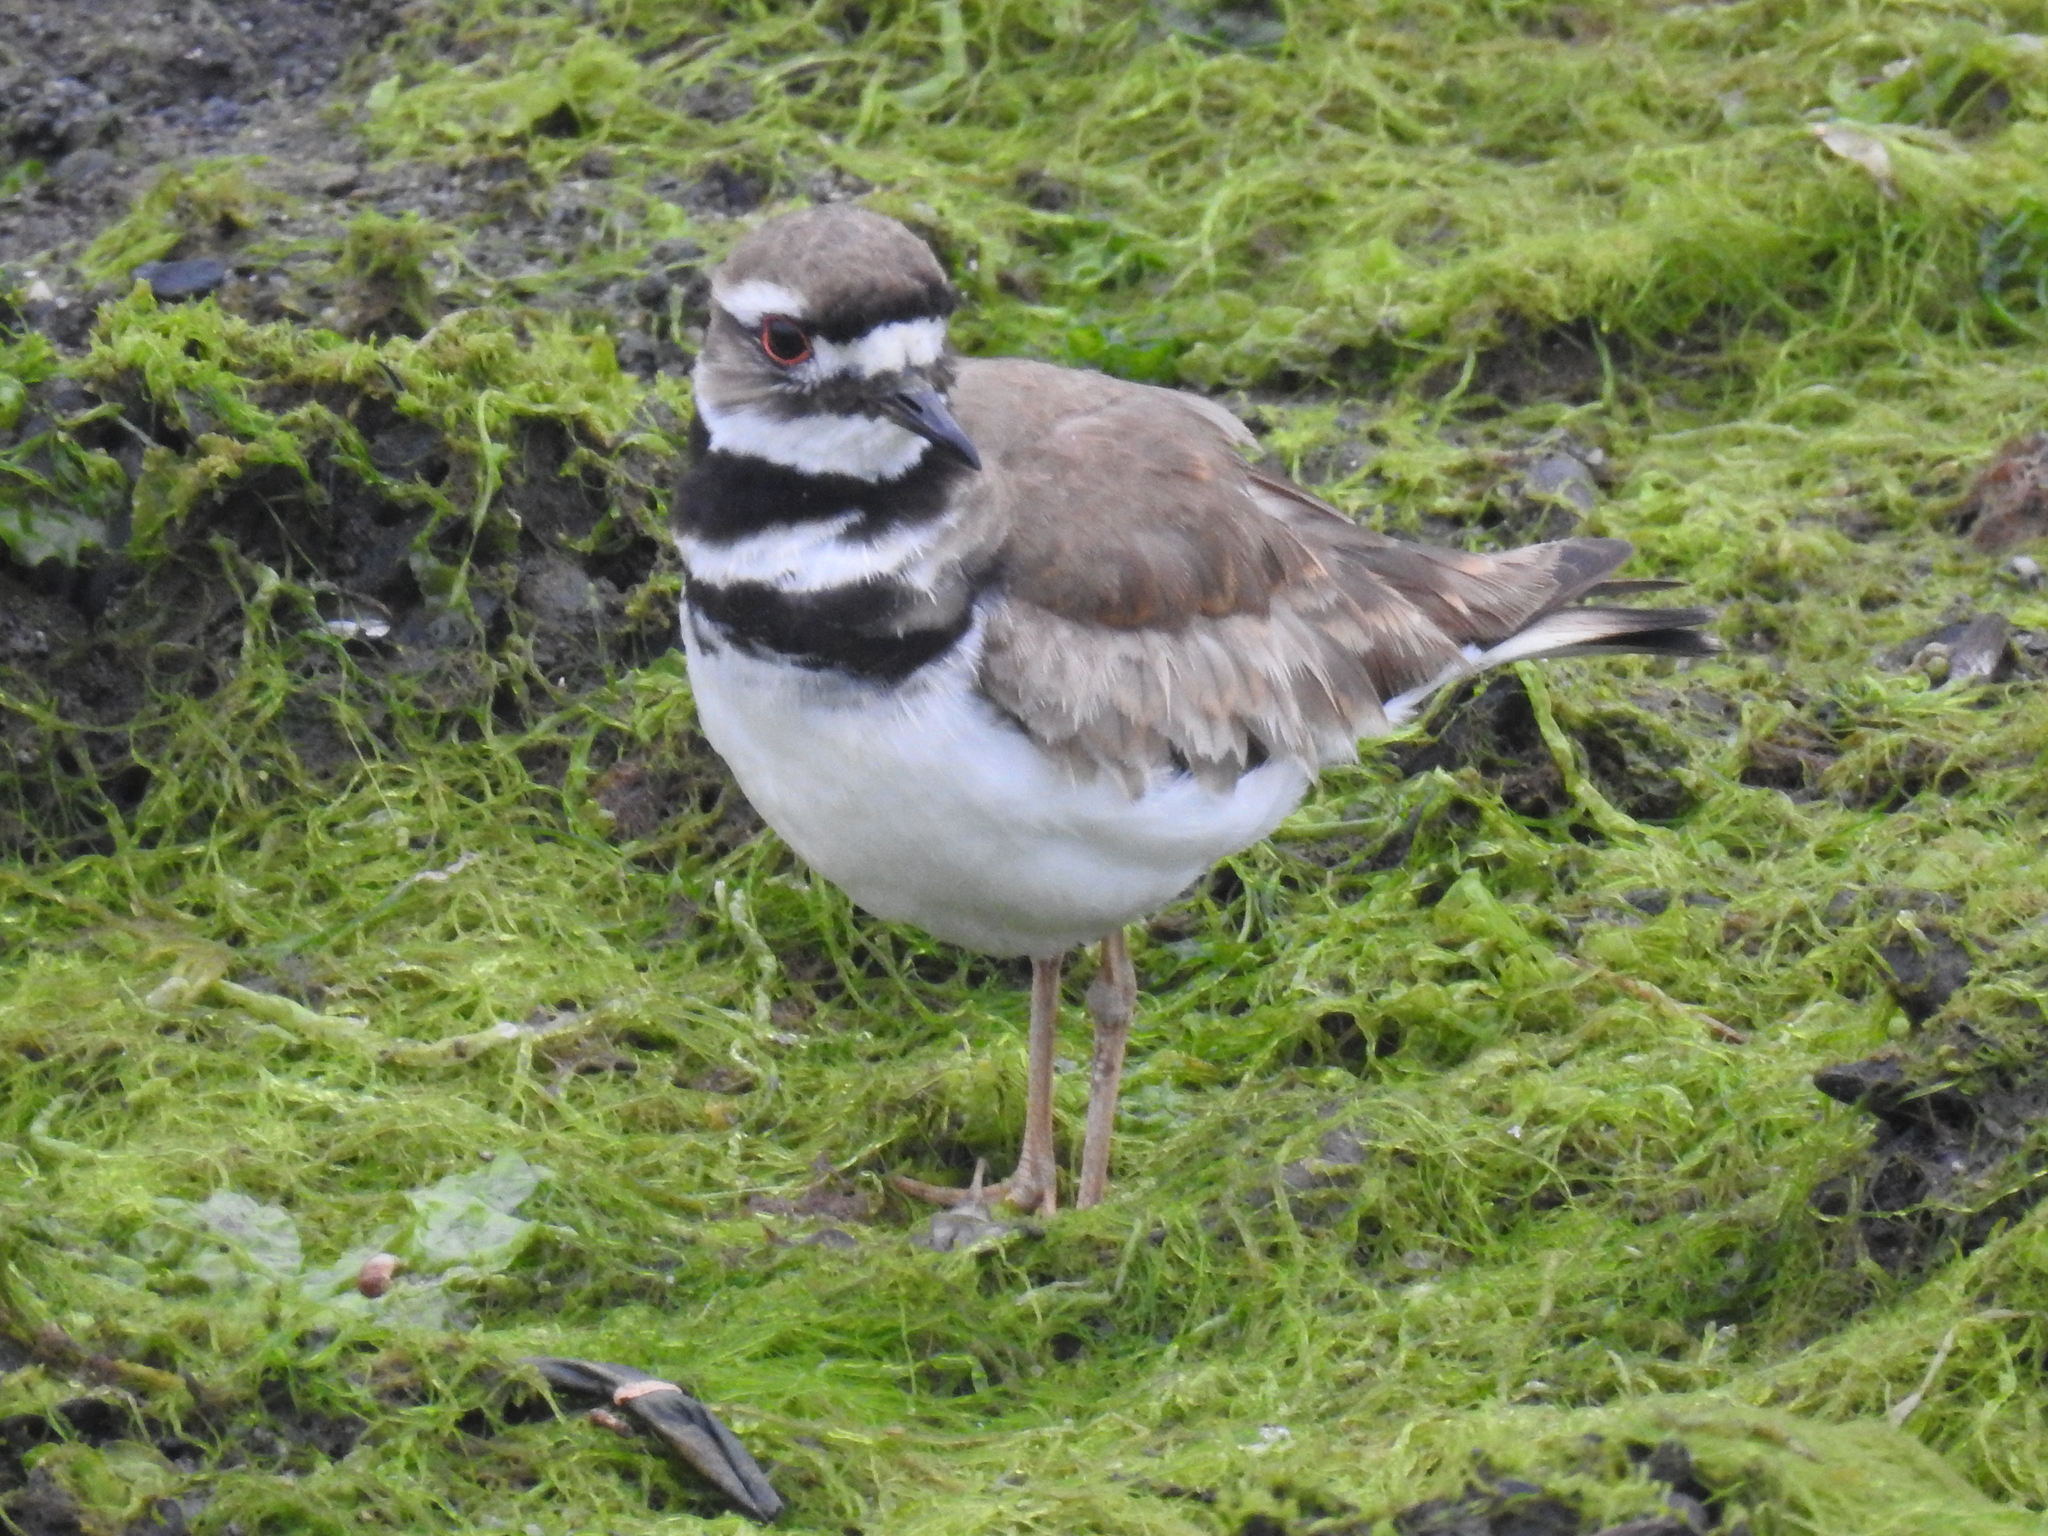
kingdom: Animalia
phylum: Chordata
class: Aves
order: Charadriiformes
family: Charadriidae
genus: Charadrius
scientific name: Charadrius vociferus
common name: Killdeer
